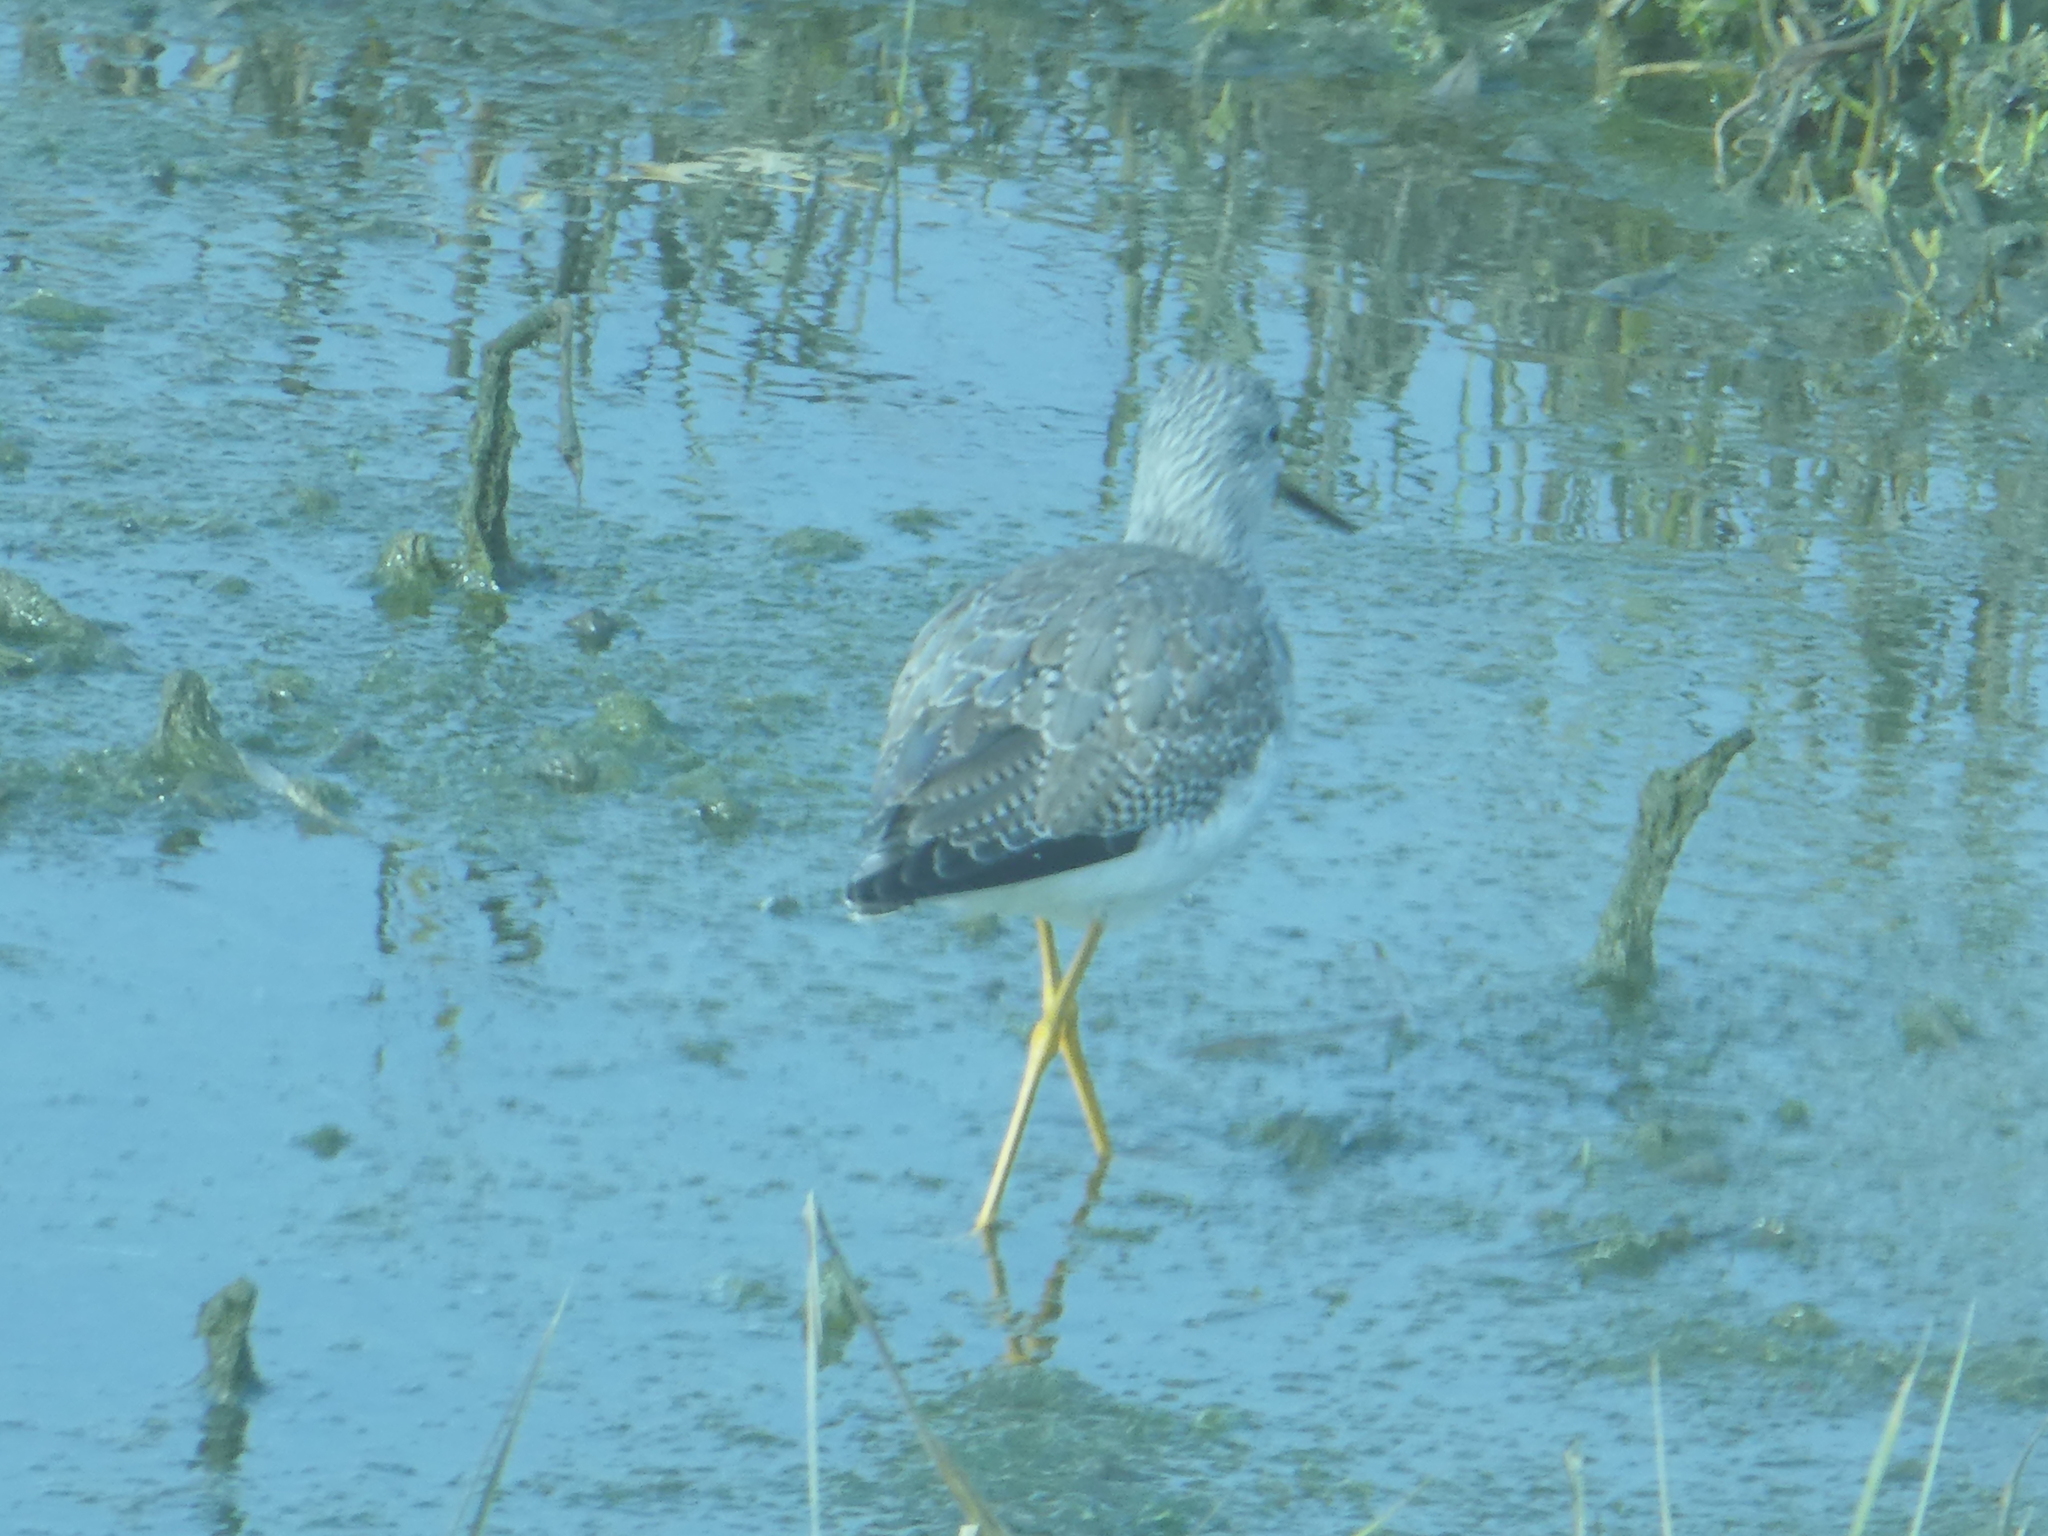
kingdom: Animalia
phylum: Chordata
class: Aves
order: Charadriiformes
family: Scolopacidae
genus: Tringa
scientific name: Tringa melanoleuca
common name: Greater yellowlegs
